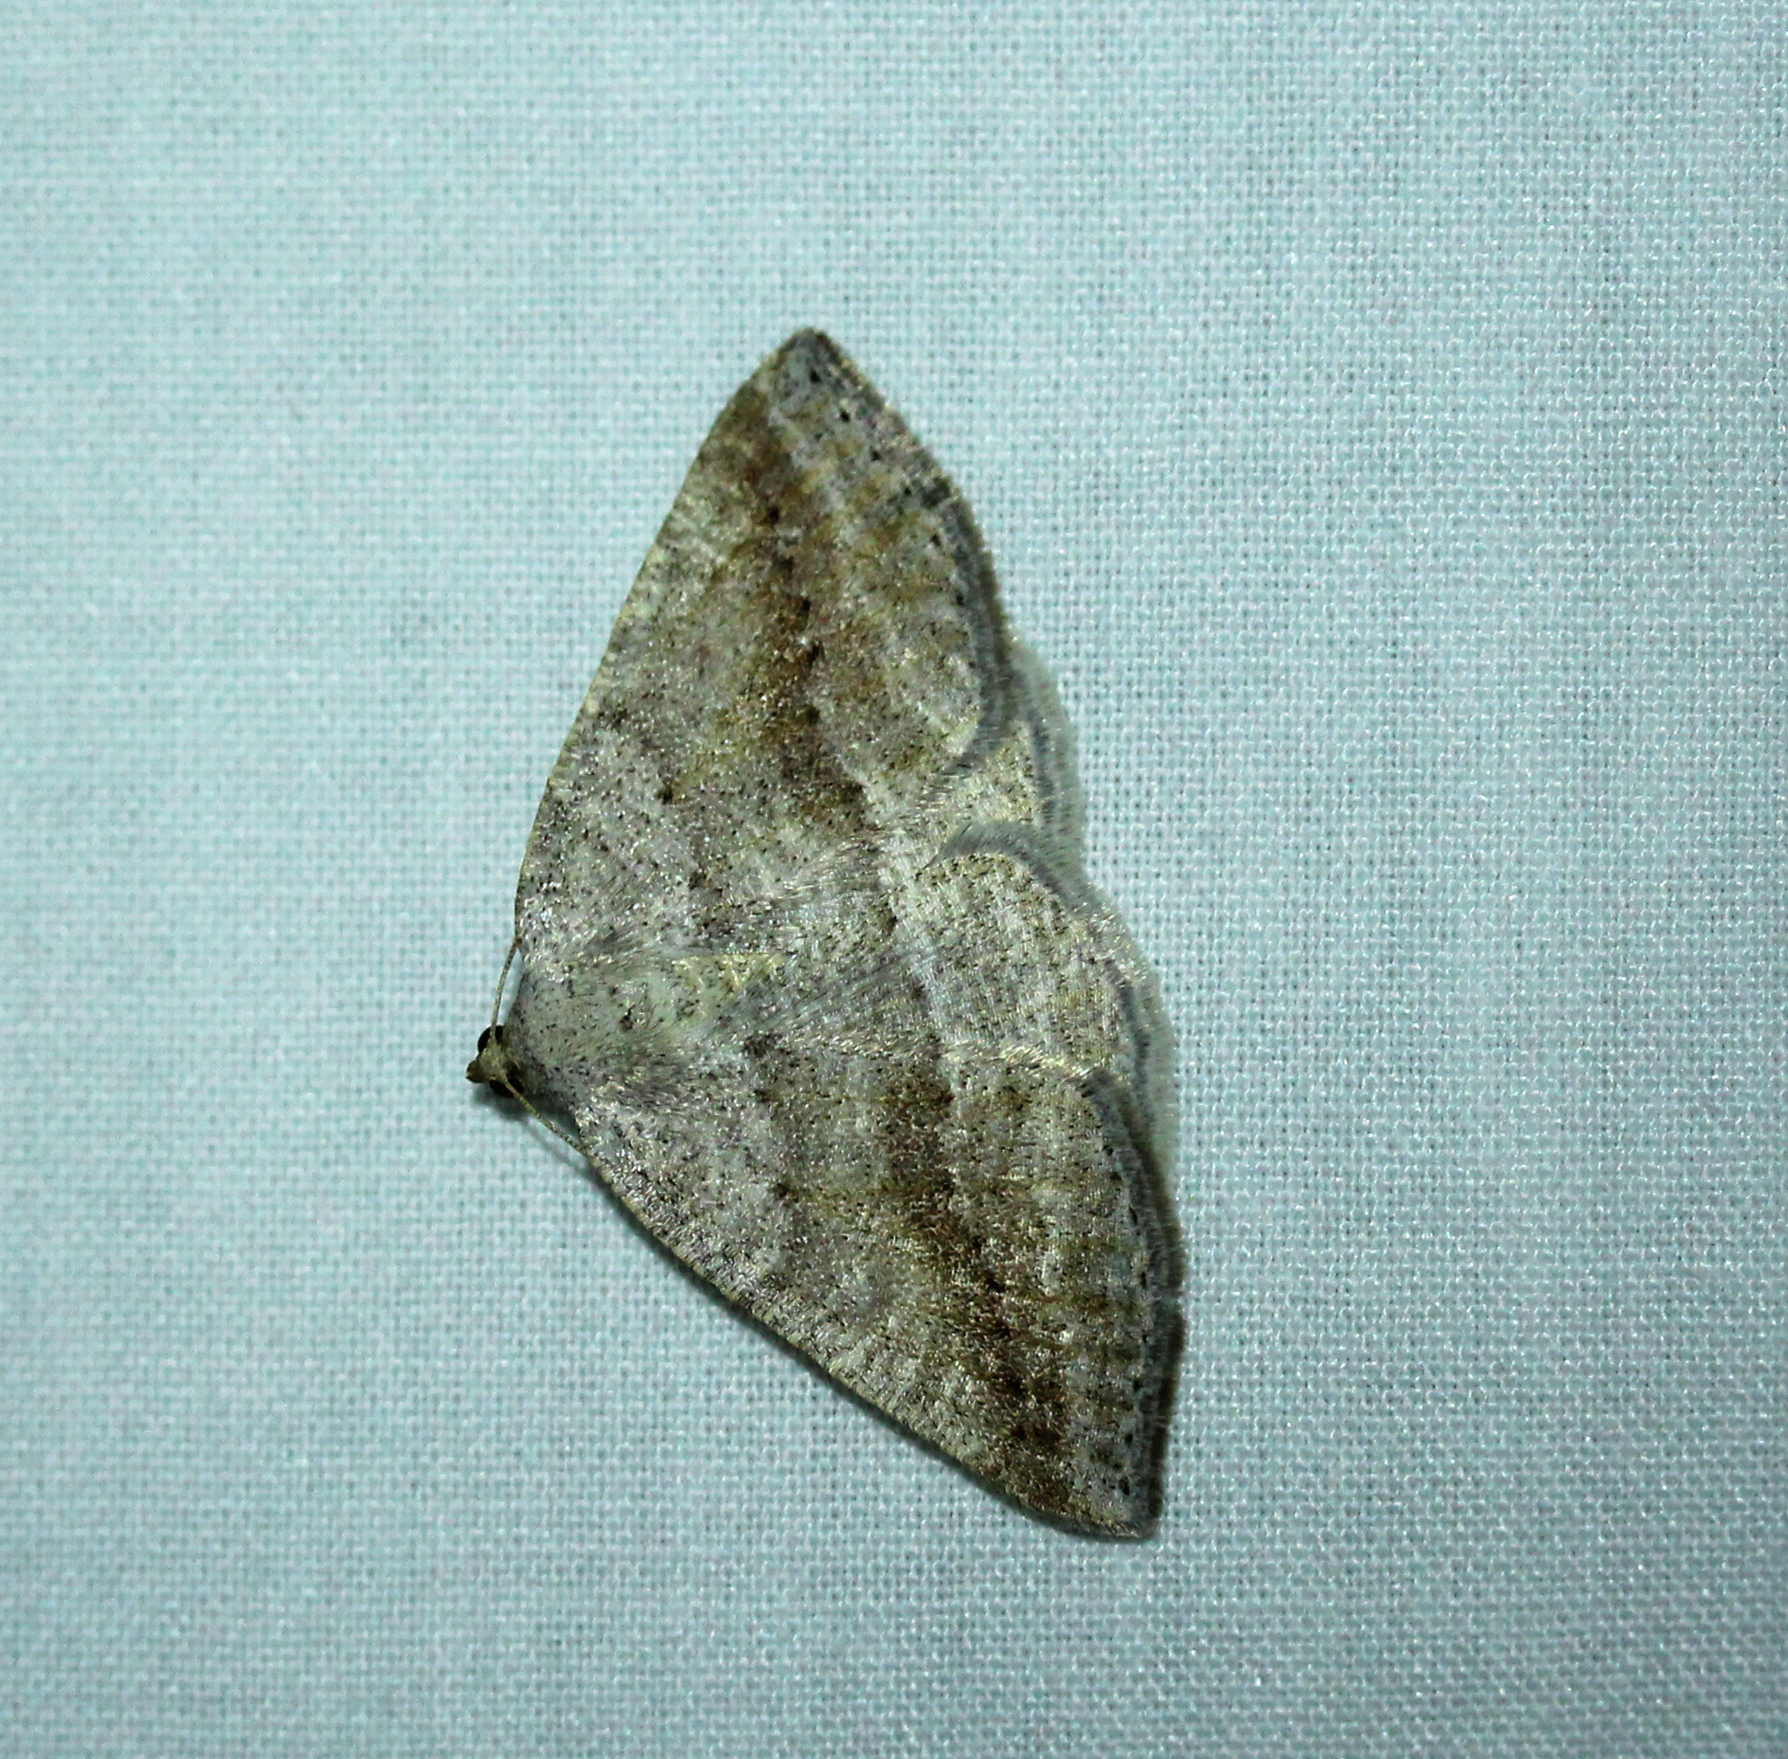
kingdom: Animalia
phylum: Arthropoda
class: Insecta
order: Lepidoptera
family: Geometridae
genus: Tacparia
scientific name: Tacparia detersata
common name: Pale alder moth
